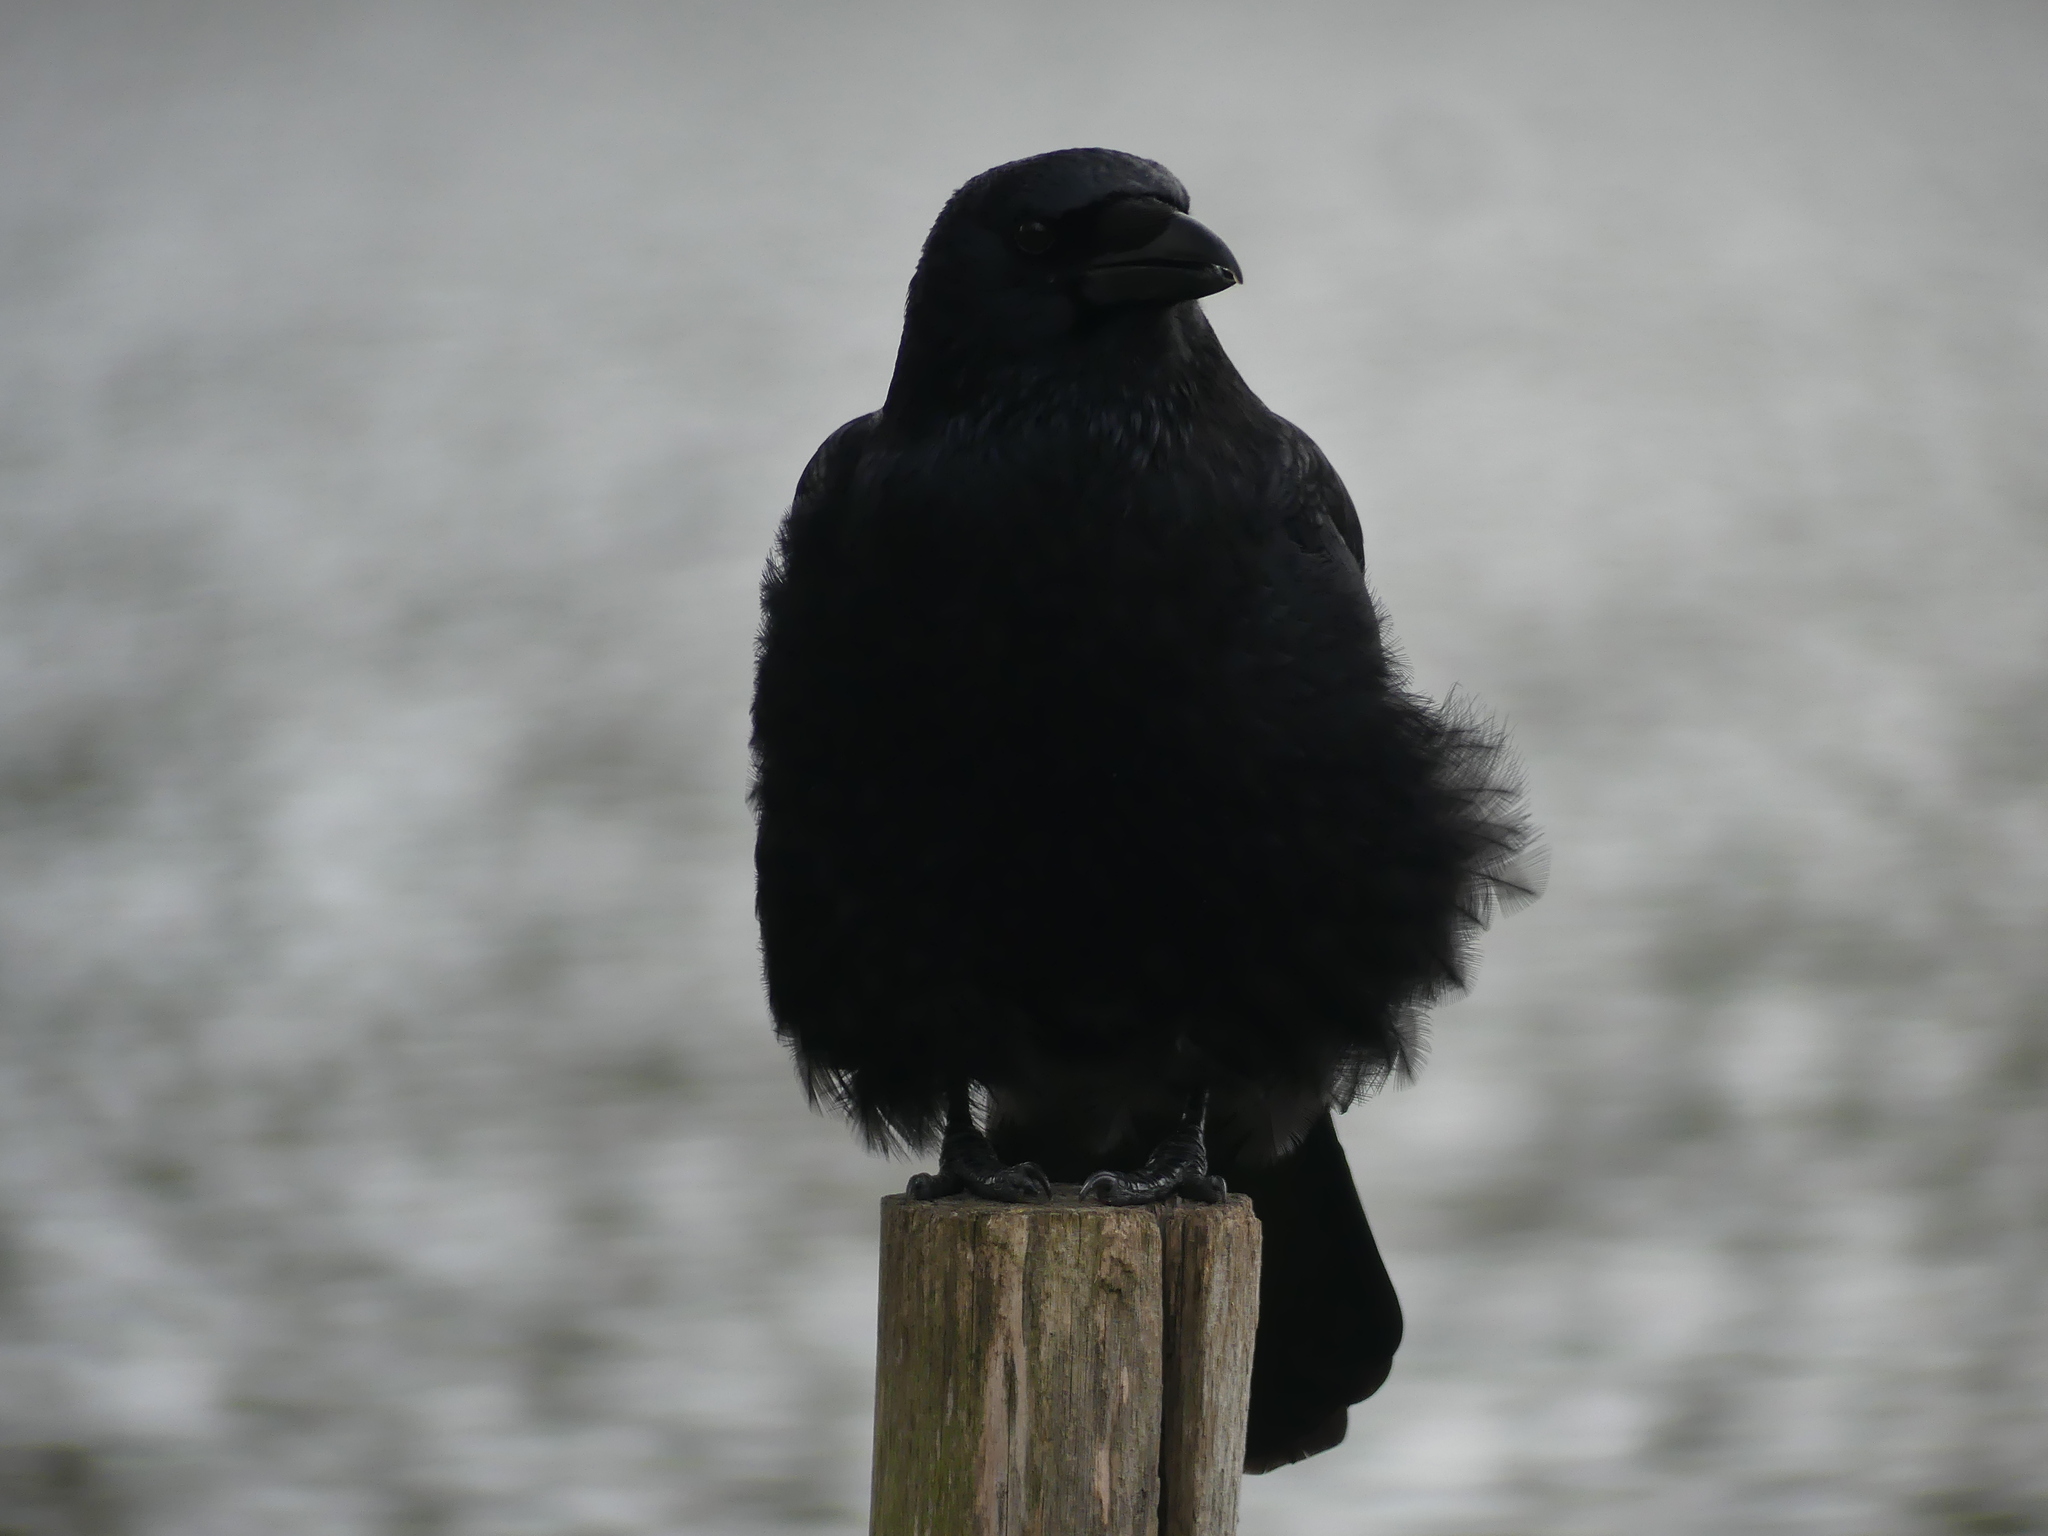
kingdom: Animalia
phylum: Chordata
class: Aves
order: Passeriformes
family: Corvidae
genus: Corvus
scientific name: Corvus corone
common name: Carrion crow
